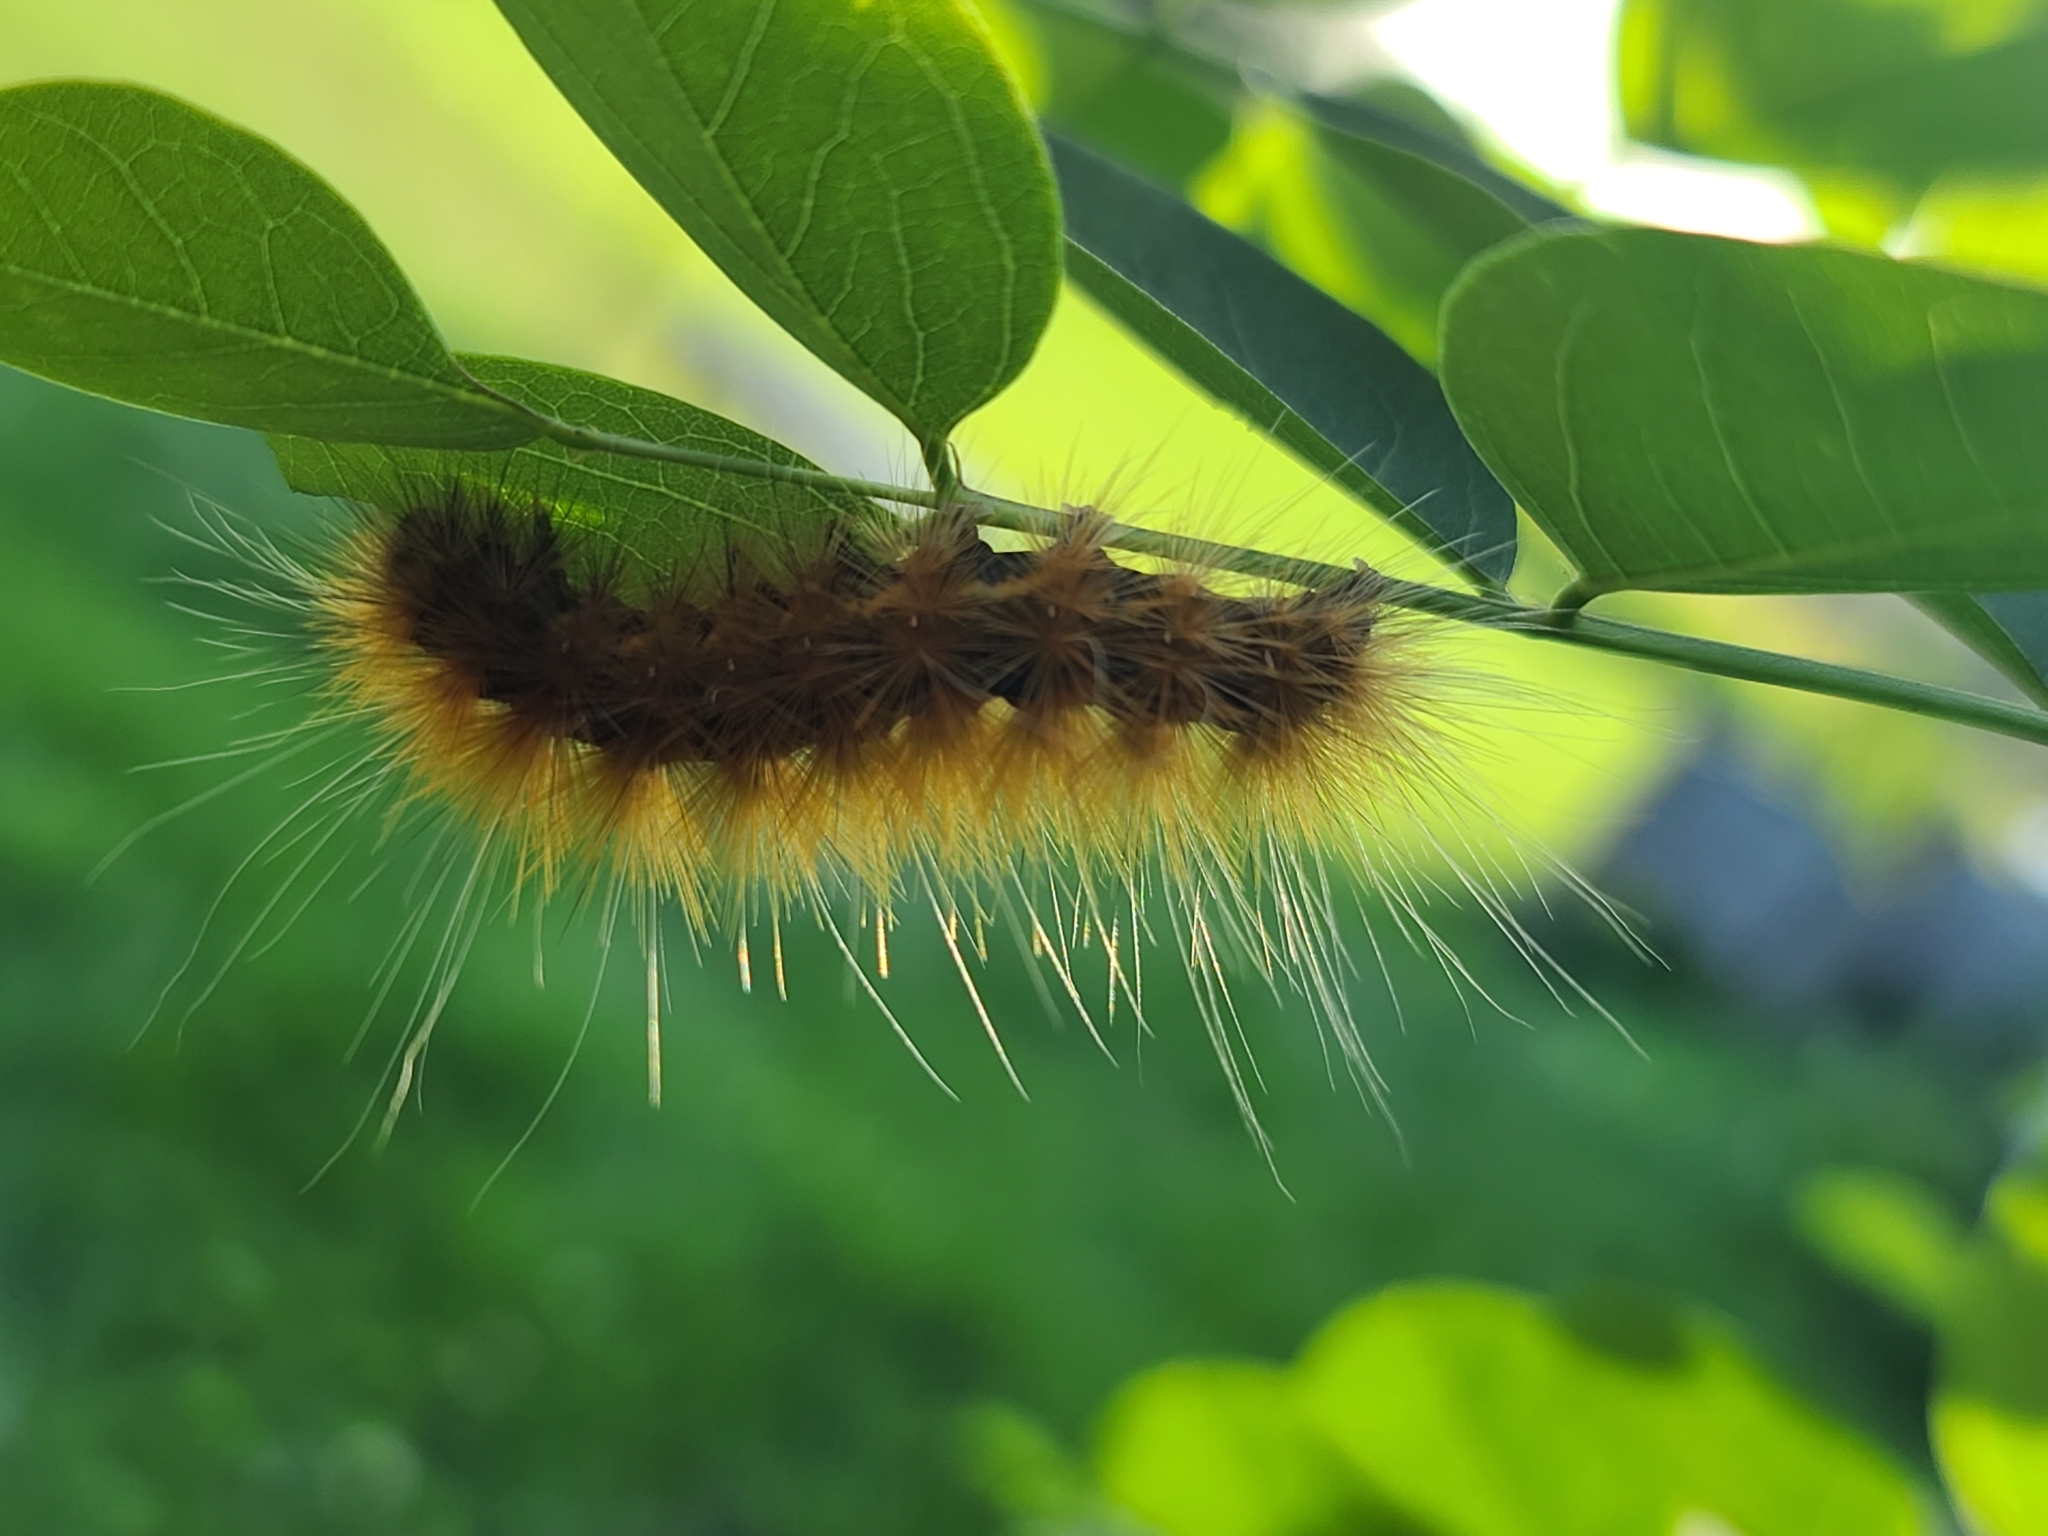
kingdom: Animalia
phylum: Arthropoda
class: Insecta
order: Lepidoptera
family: Erebidae
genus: Spilosoma
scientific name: Spilosoma virginica
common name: Virginia tiger moth
